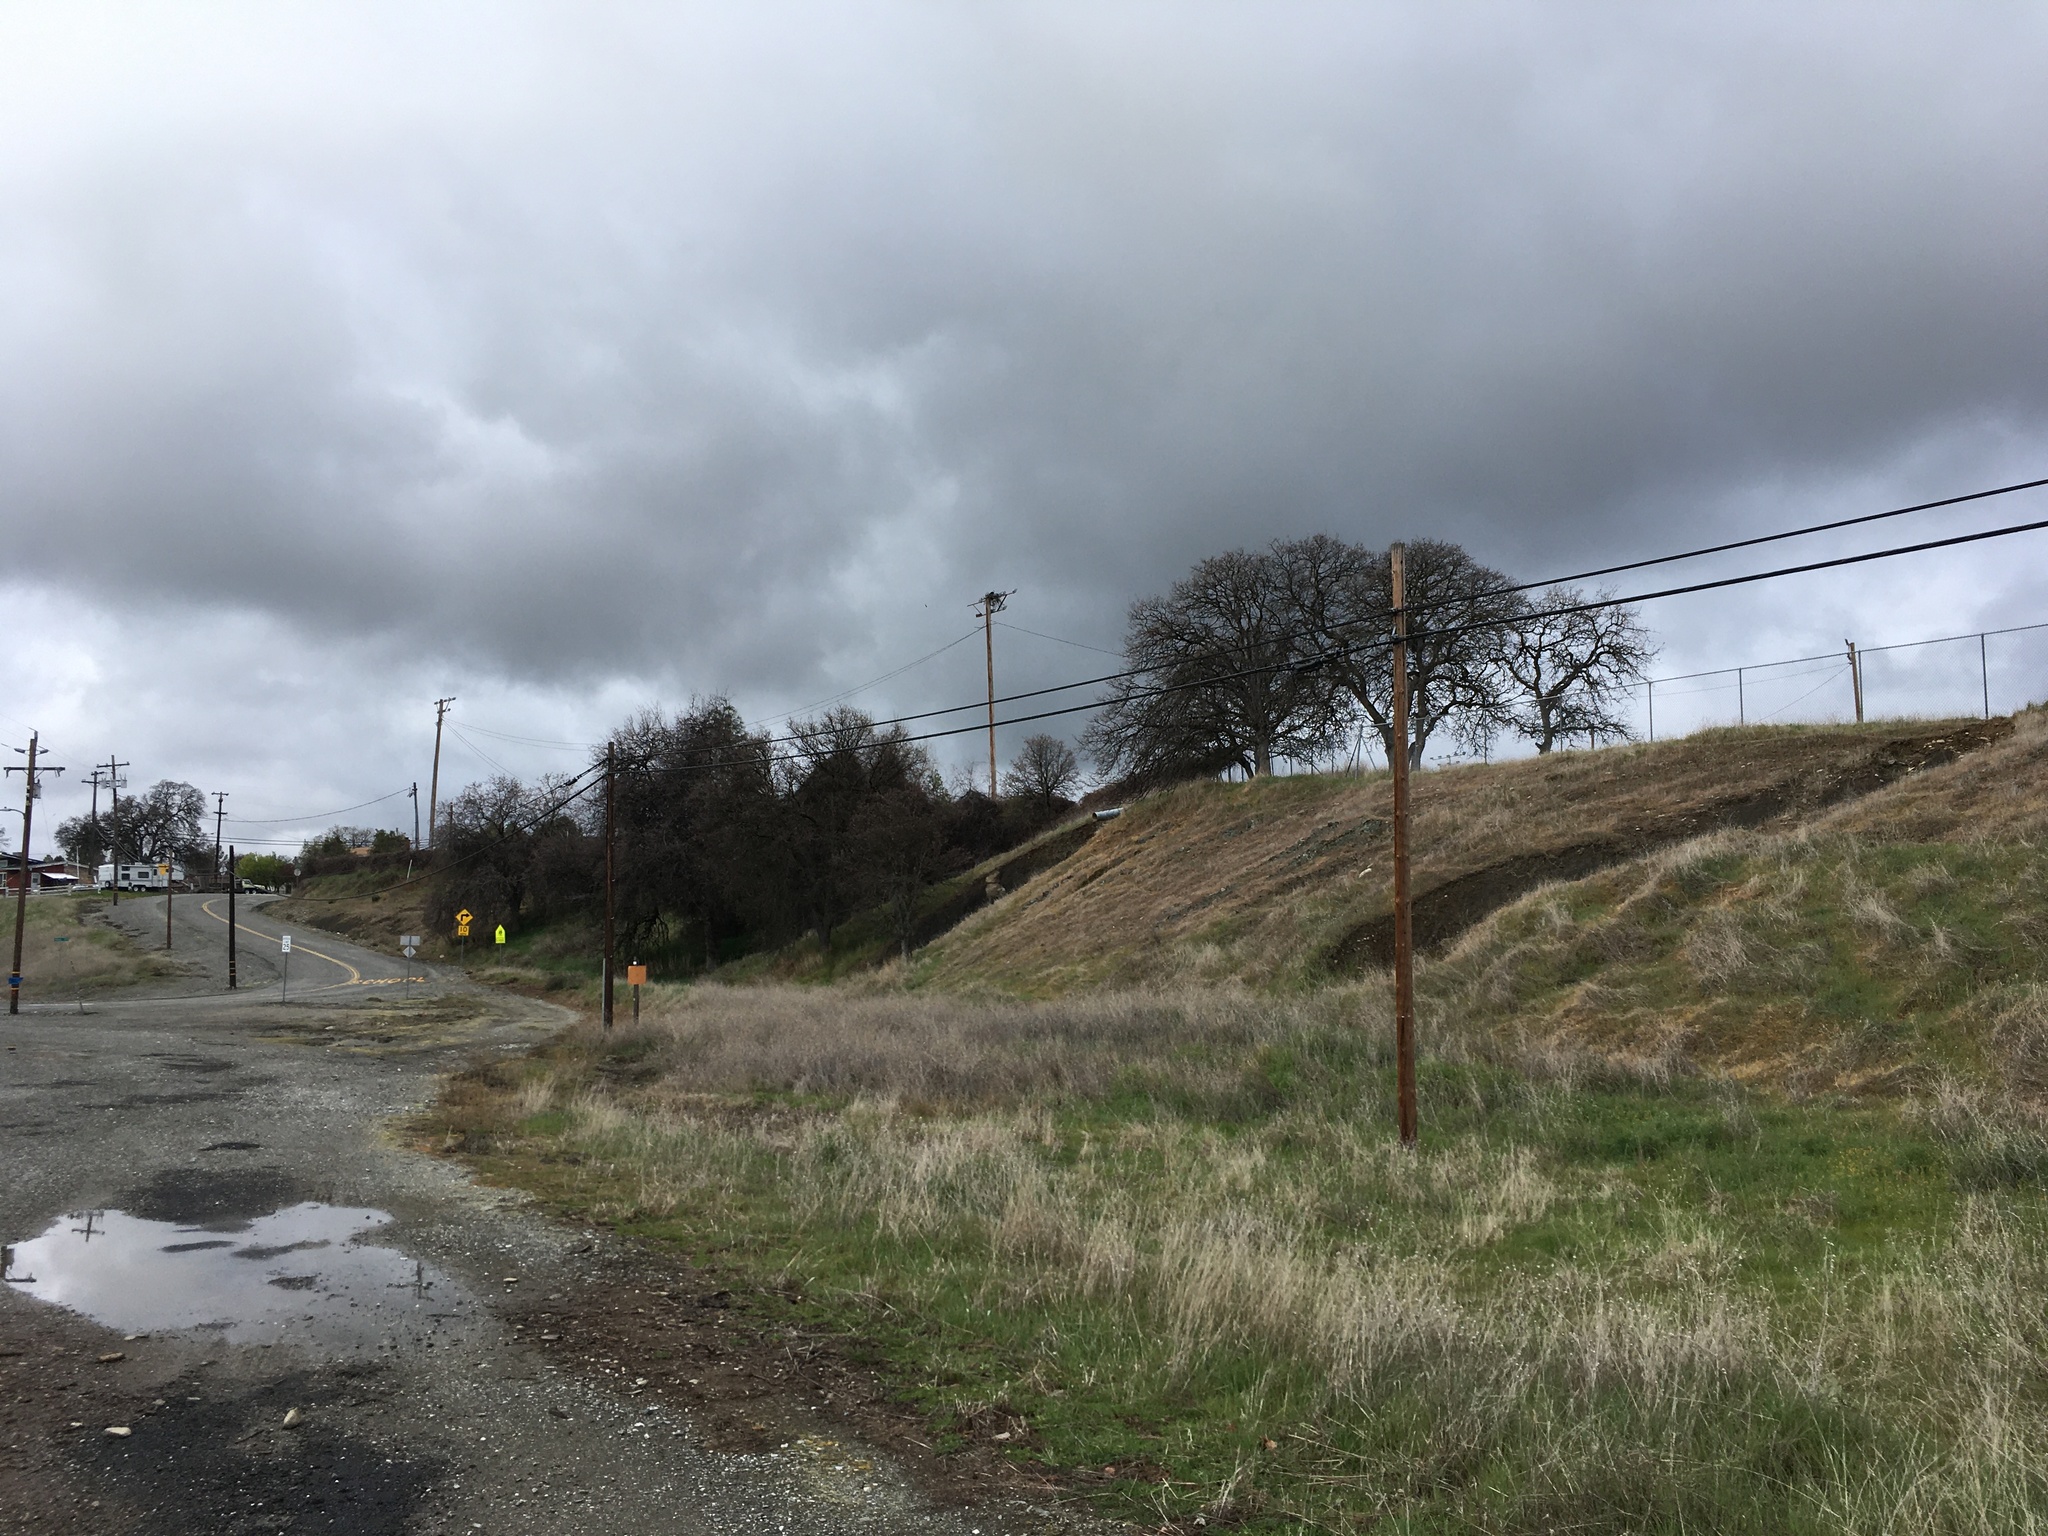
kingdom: Animalia
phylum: Chordata
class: Aves
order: Accipitriformes
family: Pandionidae
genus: Pandion
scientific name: Pandion haliaetus
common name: Osprey
